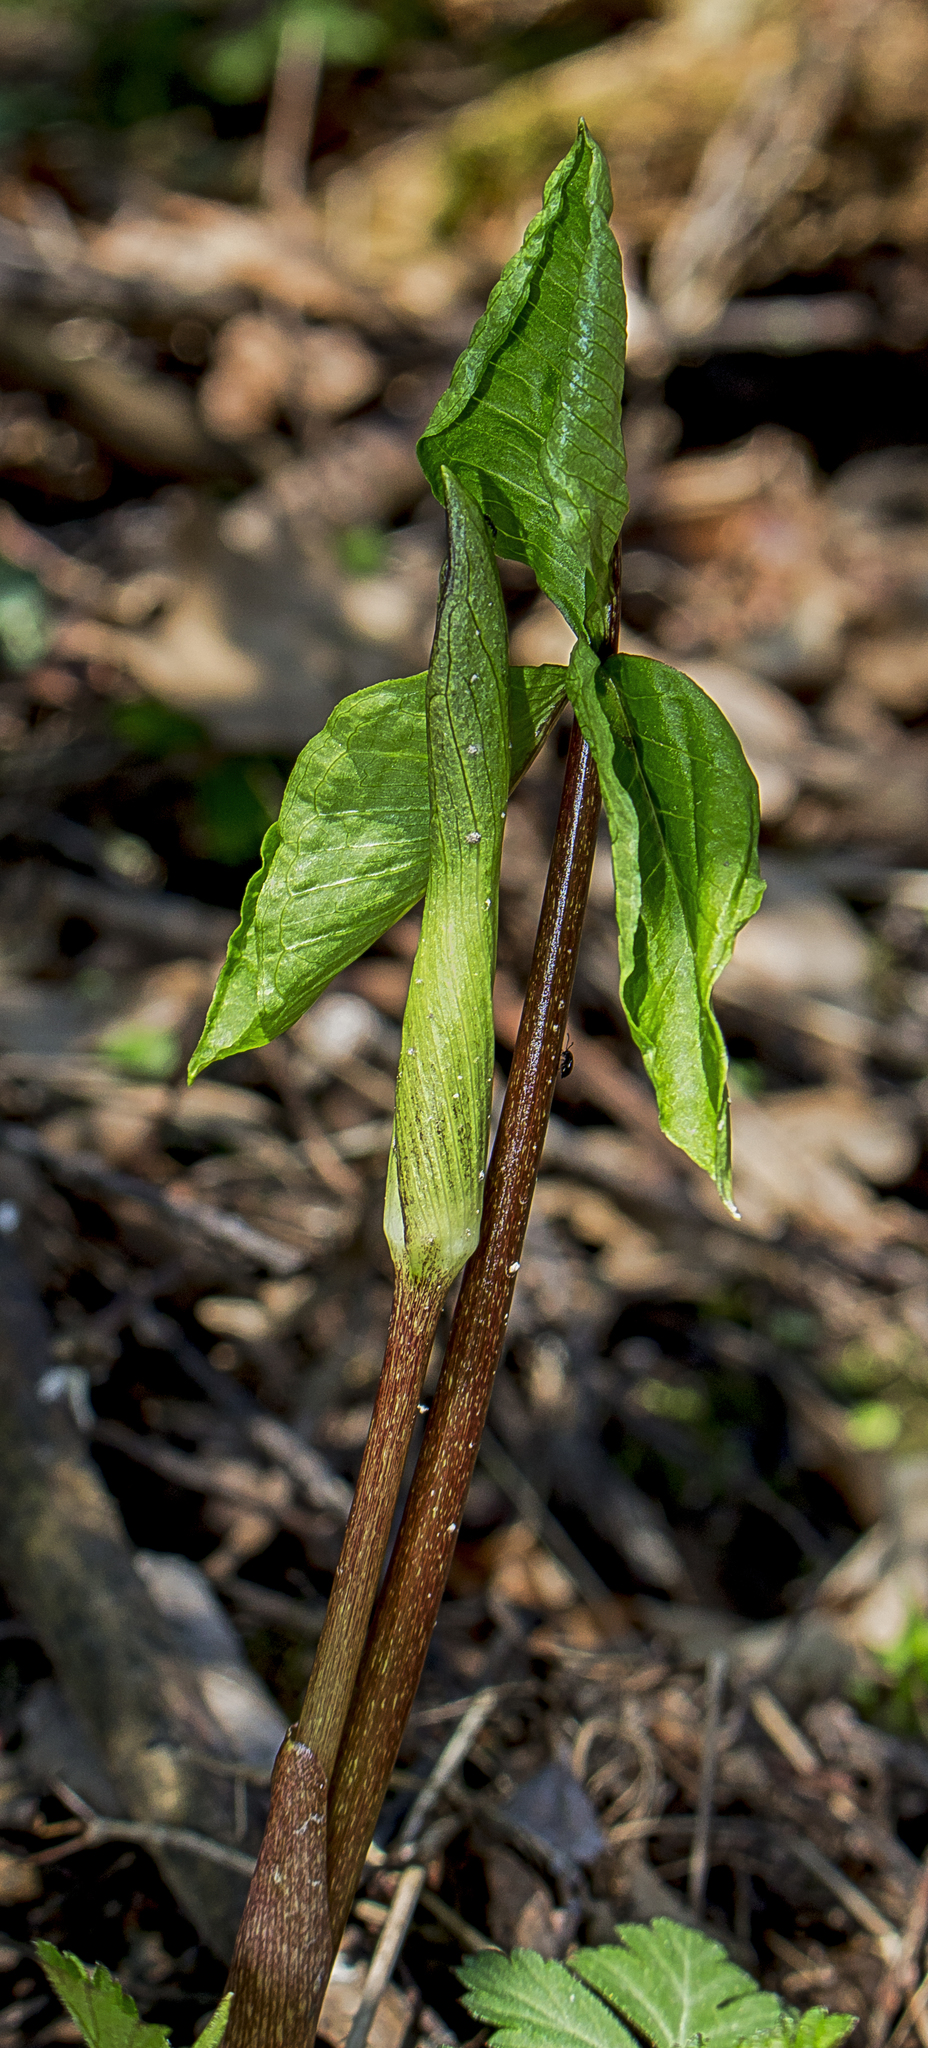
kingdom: Plantae
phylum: Tracheophyta
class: Liliopsida
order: Alismatales
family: Araceae
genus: Arisaema
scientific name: Arisaema triphyllum
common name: Jack-in-the-pulpit
